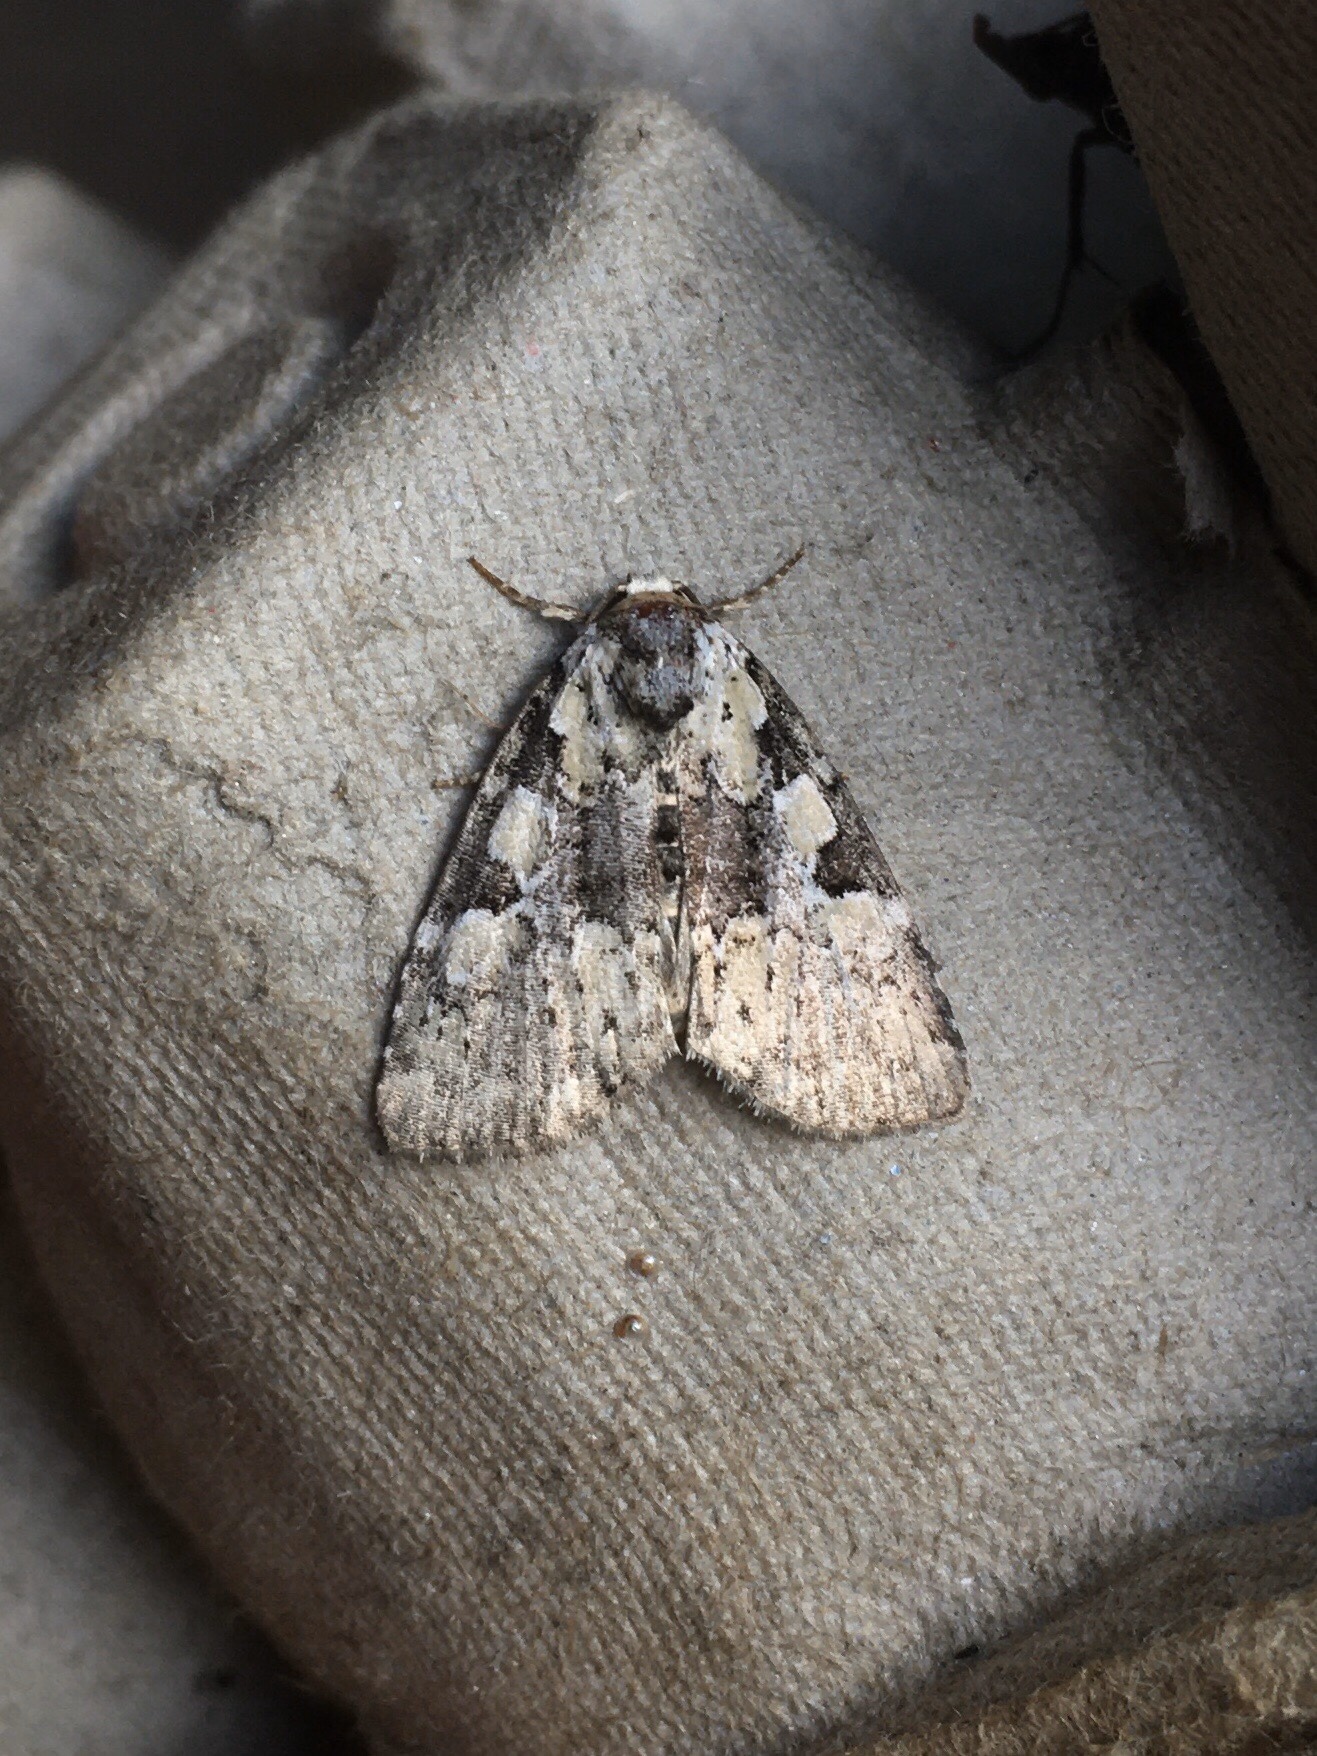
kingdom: Animalia
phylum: Arthropoda
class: Insecta
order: Lepidoptera
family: Noctuidae
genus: Leuconycta
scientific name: Leuconycta lepidula
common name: Marbled-green leuconycta moth
